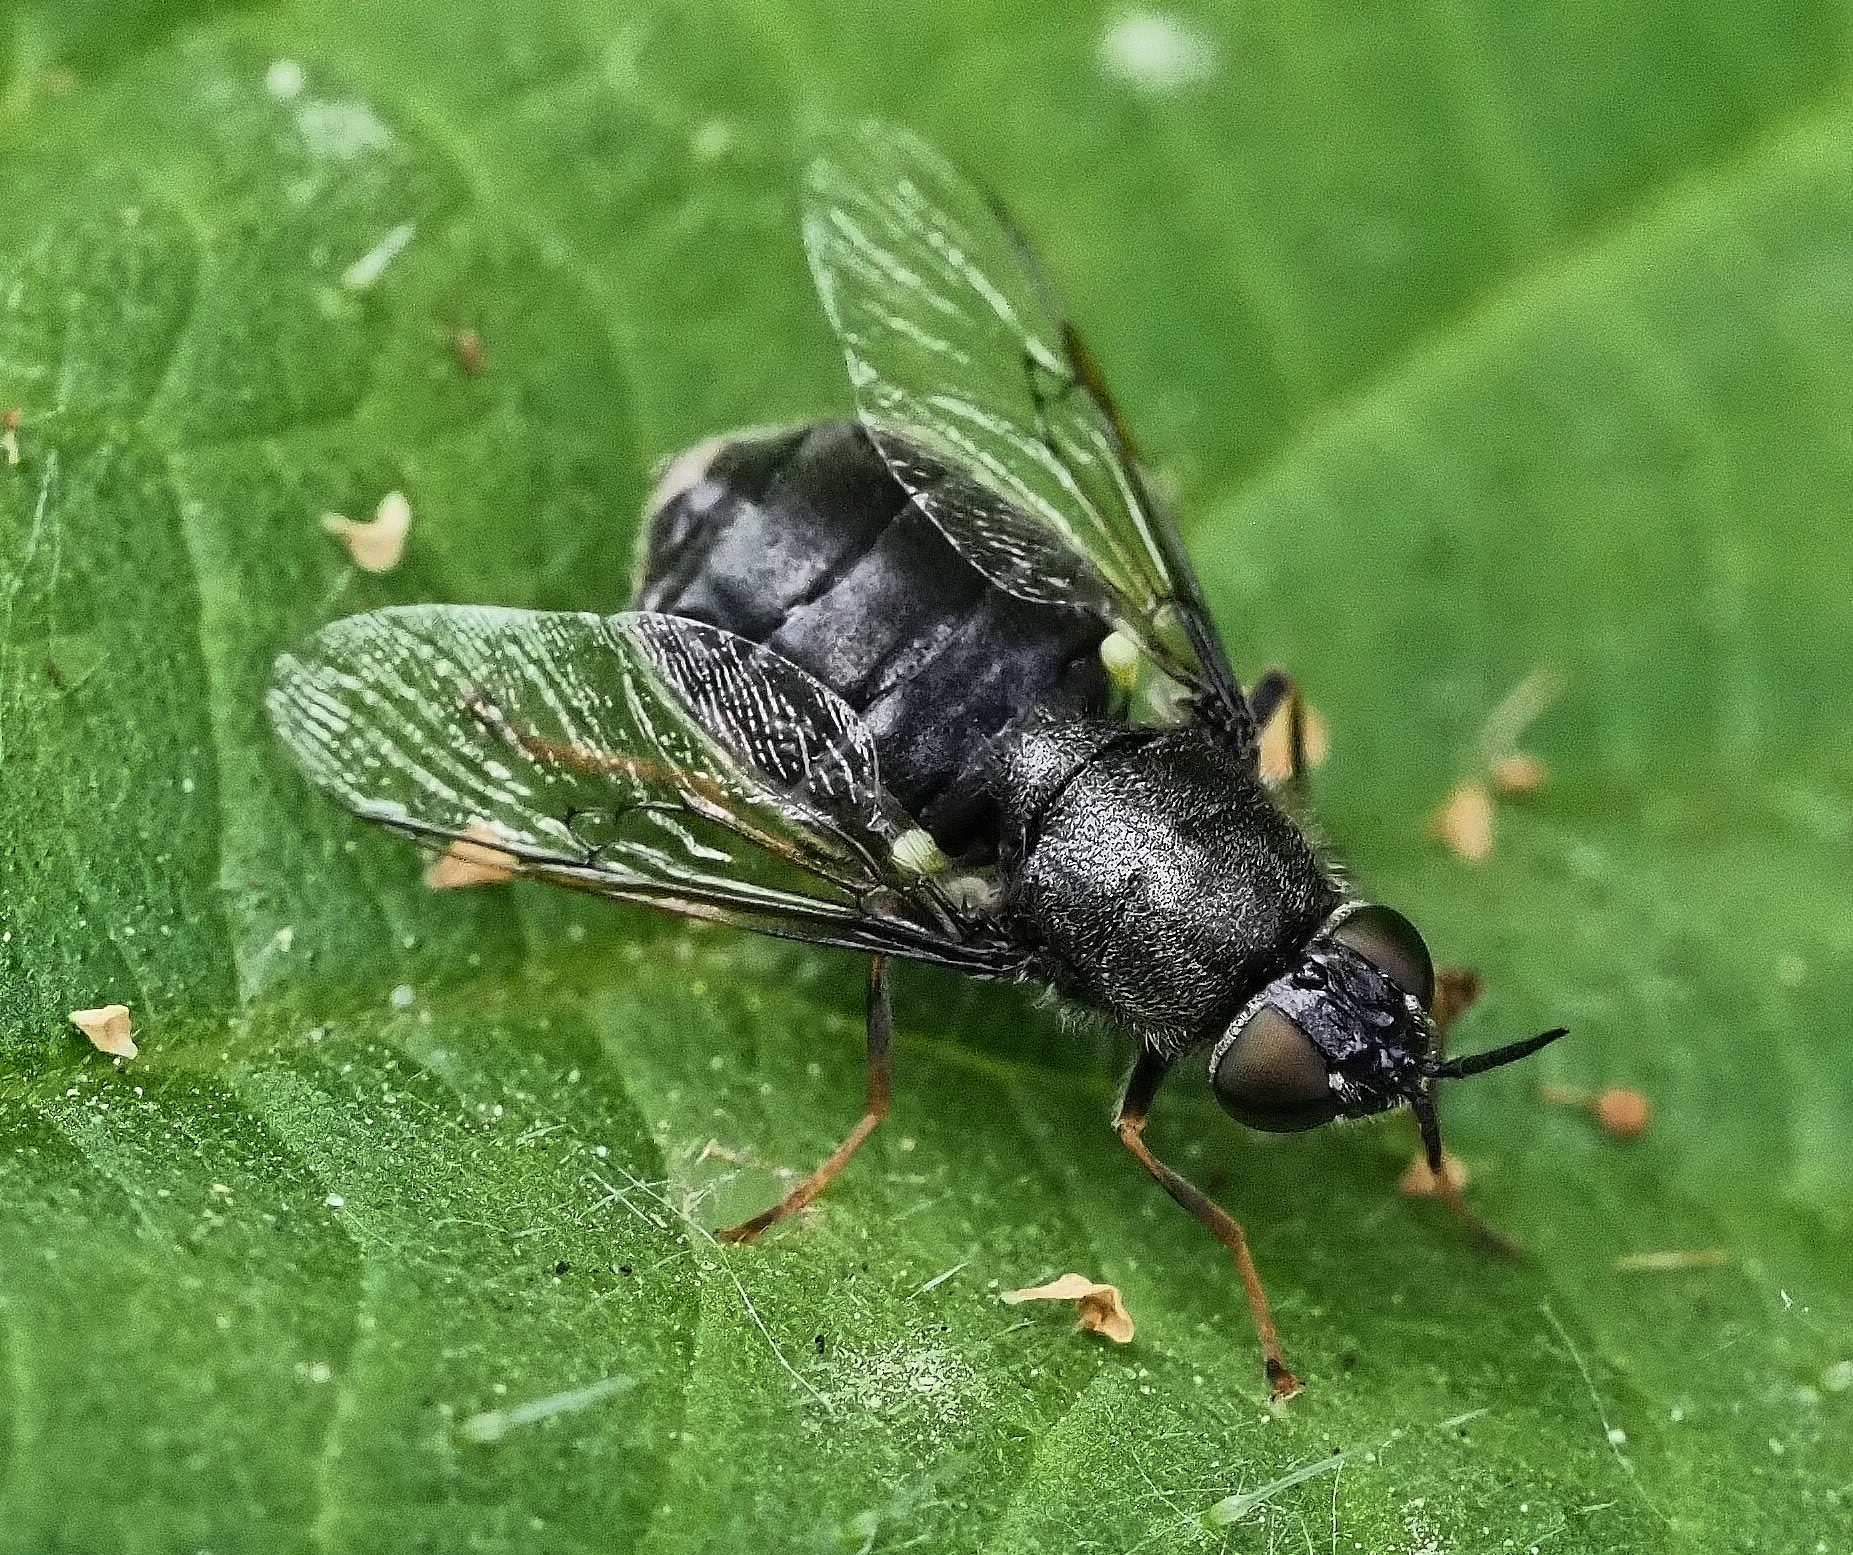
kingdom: Animalia
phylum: Arthropoda
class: Insecta
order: Diptera
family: Stratiomyidae
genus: Odontomyia
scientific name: Odontomyia tigrina
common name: Black colonel
